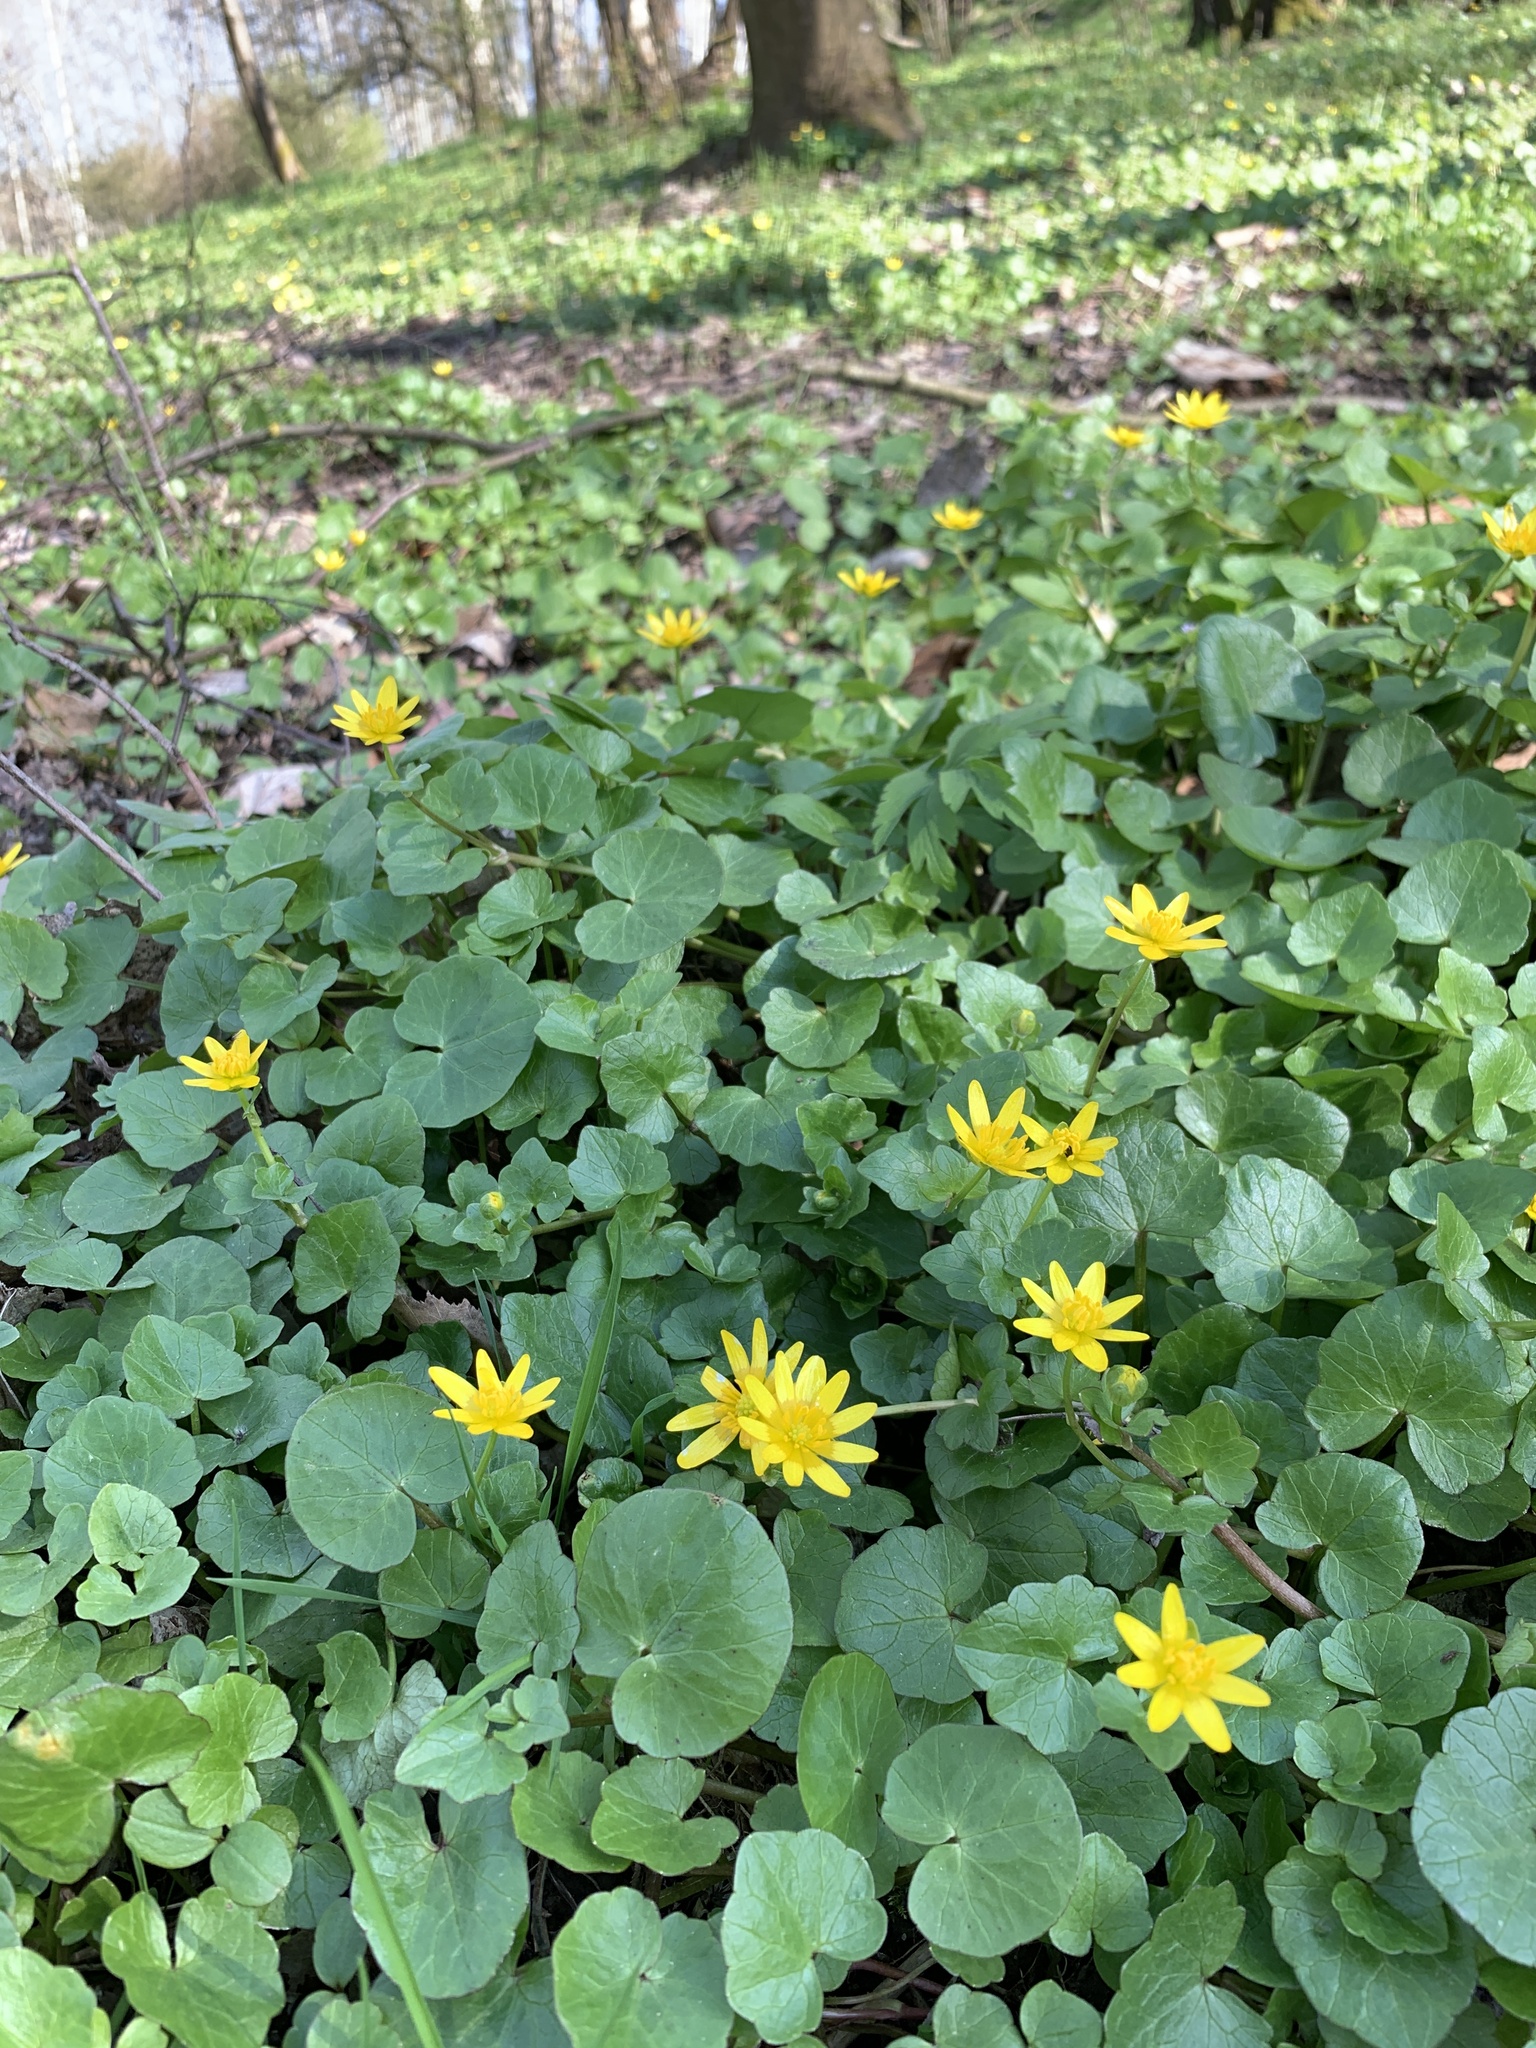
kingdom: Plantae
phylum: Tracheophyta
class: Magnoliopsida
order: Ranunculales
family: Ranunculaceae
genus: Ficaria
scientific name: Ficaria verna
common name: Lesser celandine
